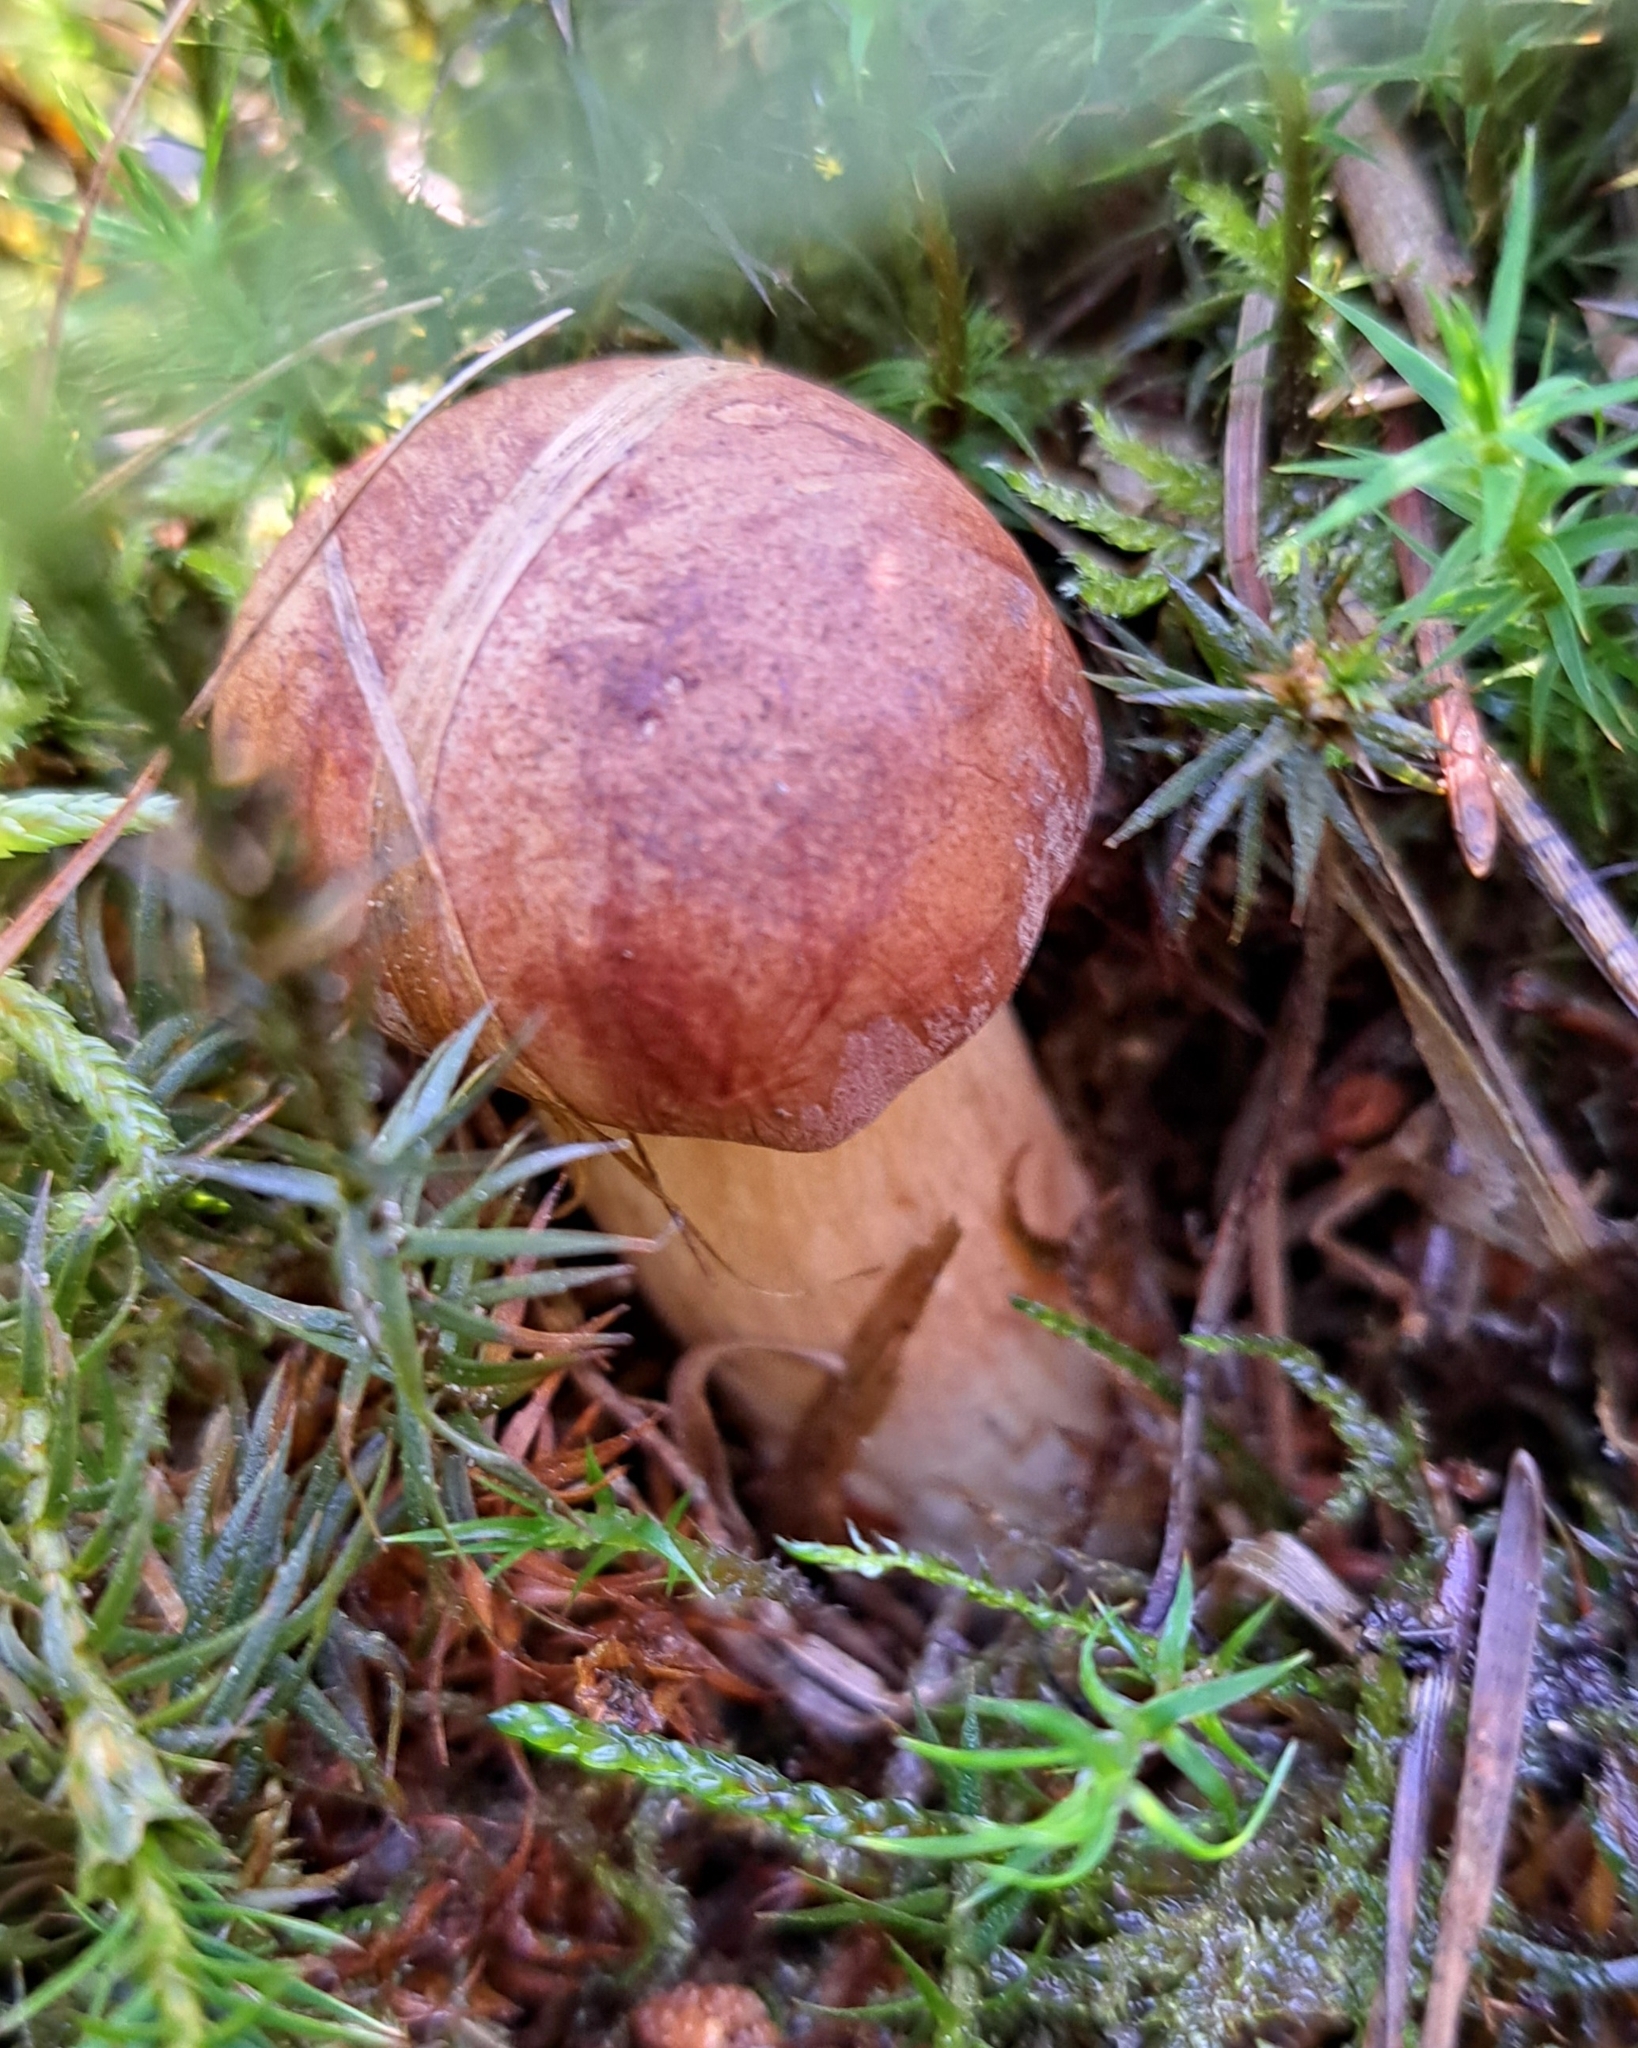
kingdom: Fungi
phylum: Basidiomycota
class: Agaricomycetes
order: Boletales
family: Boletaceae
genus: Imleria
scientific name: Imleria badia
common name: Bay bolete
